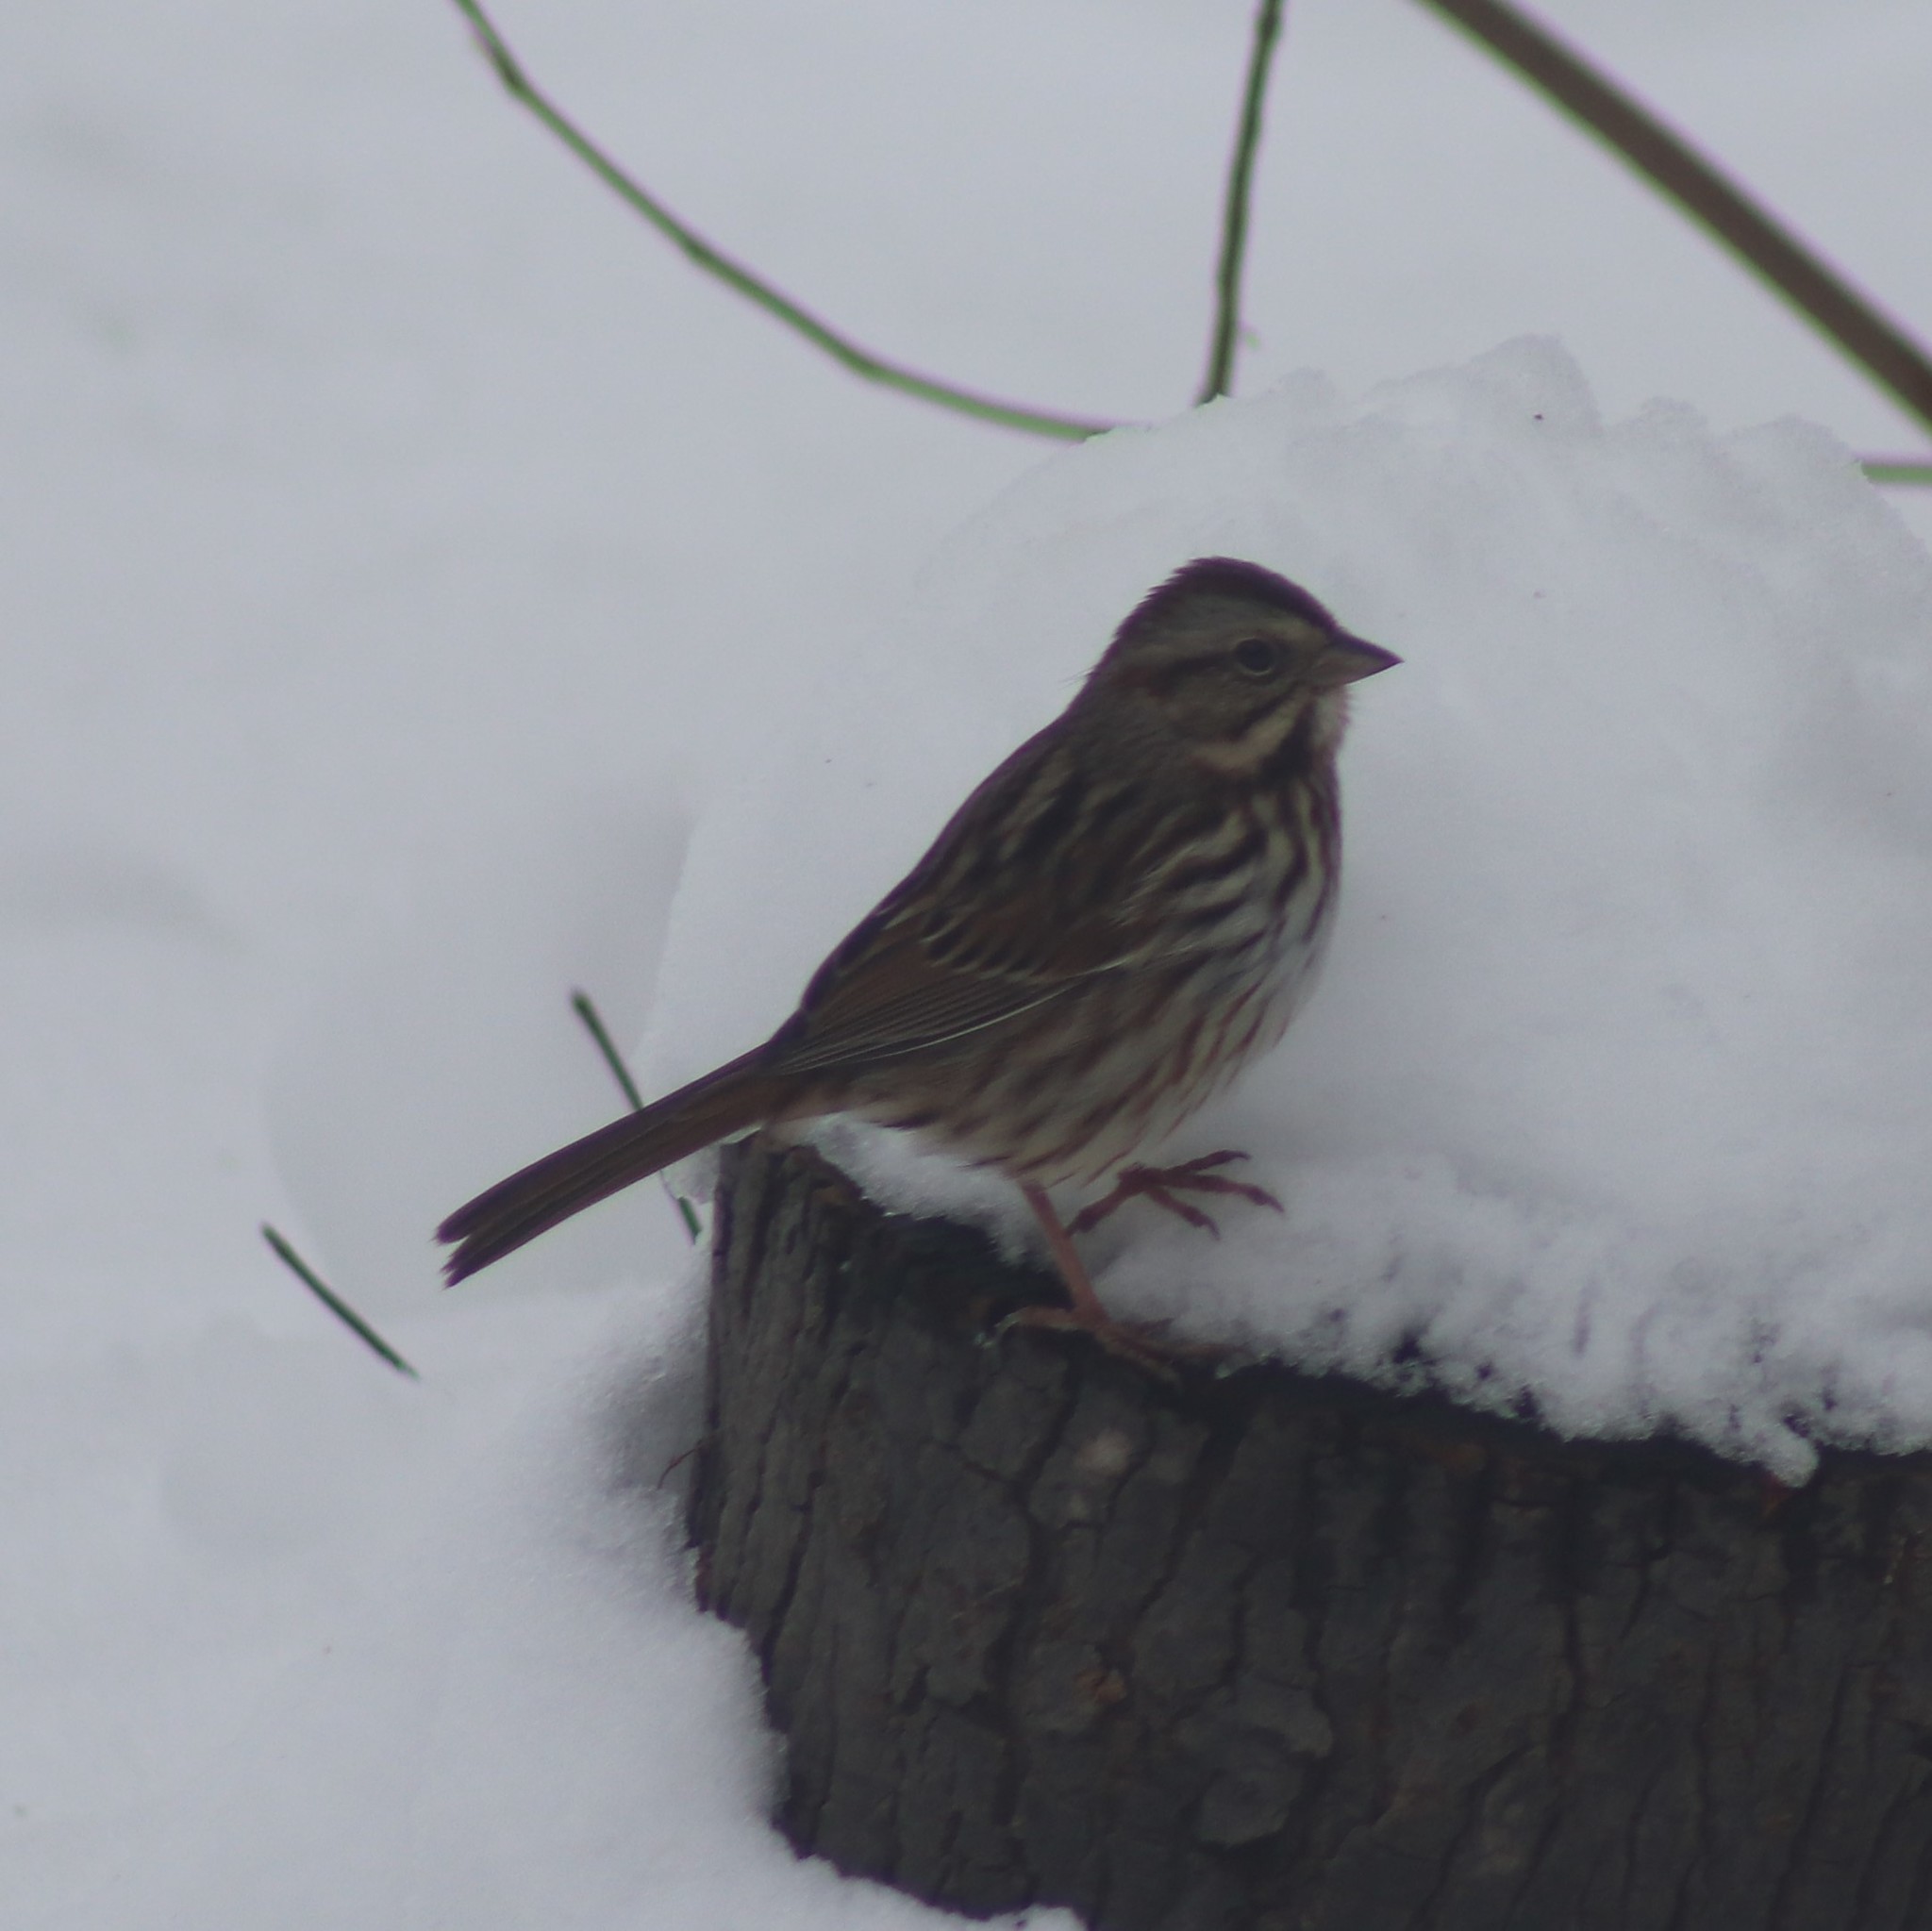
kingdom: Animalia
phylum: Chordata
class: Aves
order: Passeriformes
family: Passerellidae
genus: Melospiza
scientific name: Melospiza melodia
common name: Song sparrow
